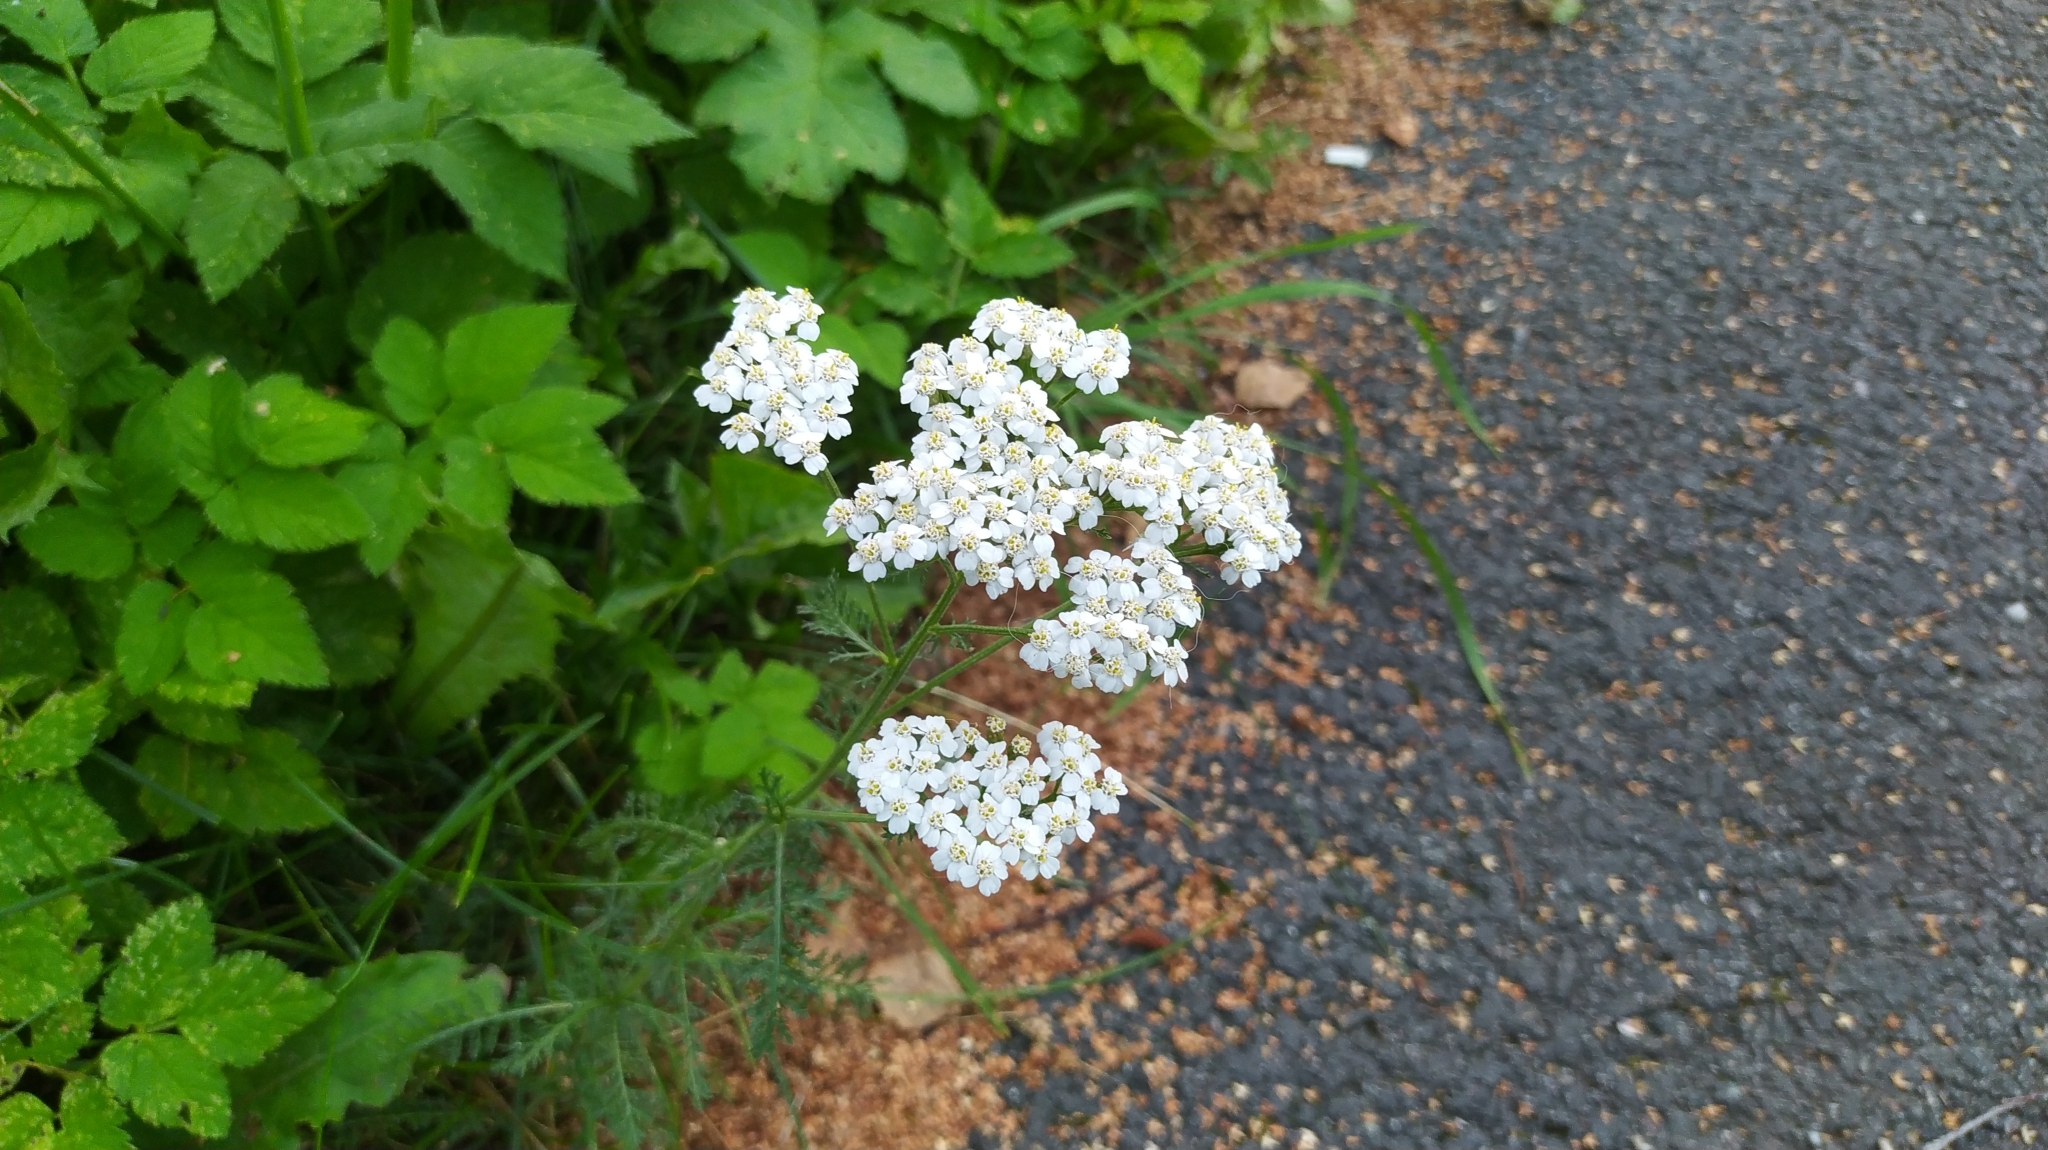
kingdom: Plantae
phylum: Tracheophyta
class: Magnoliopsida
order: Asterales
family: Asteraceae
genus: Achillea
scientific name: Achillea millefolium
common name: Yarrow
